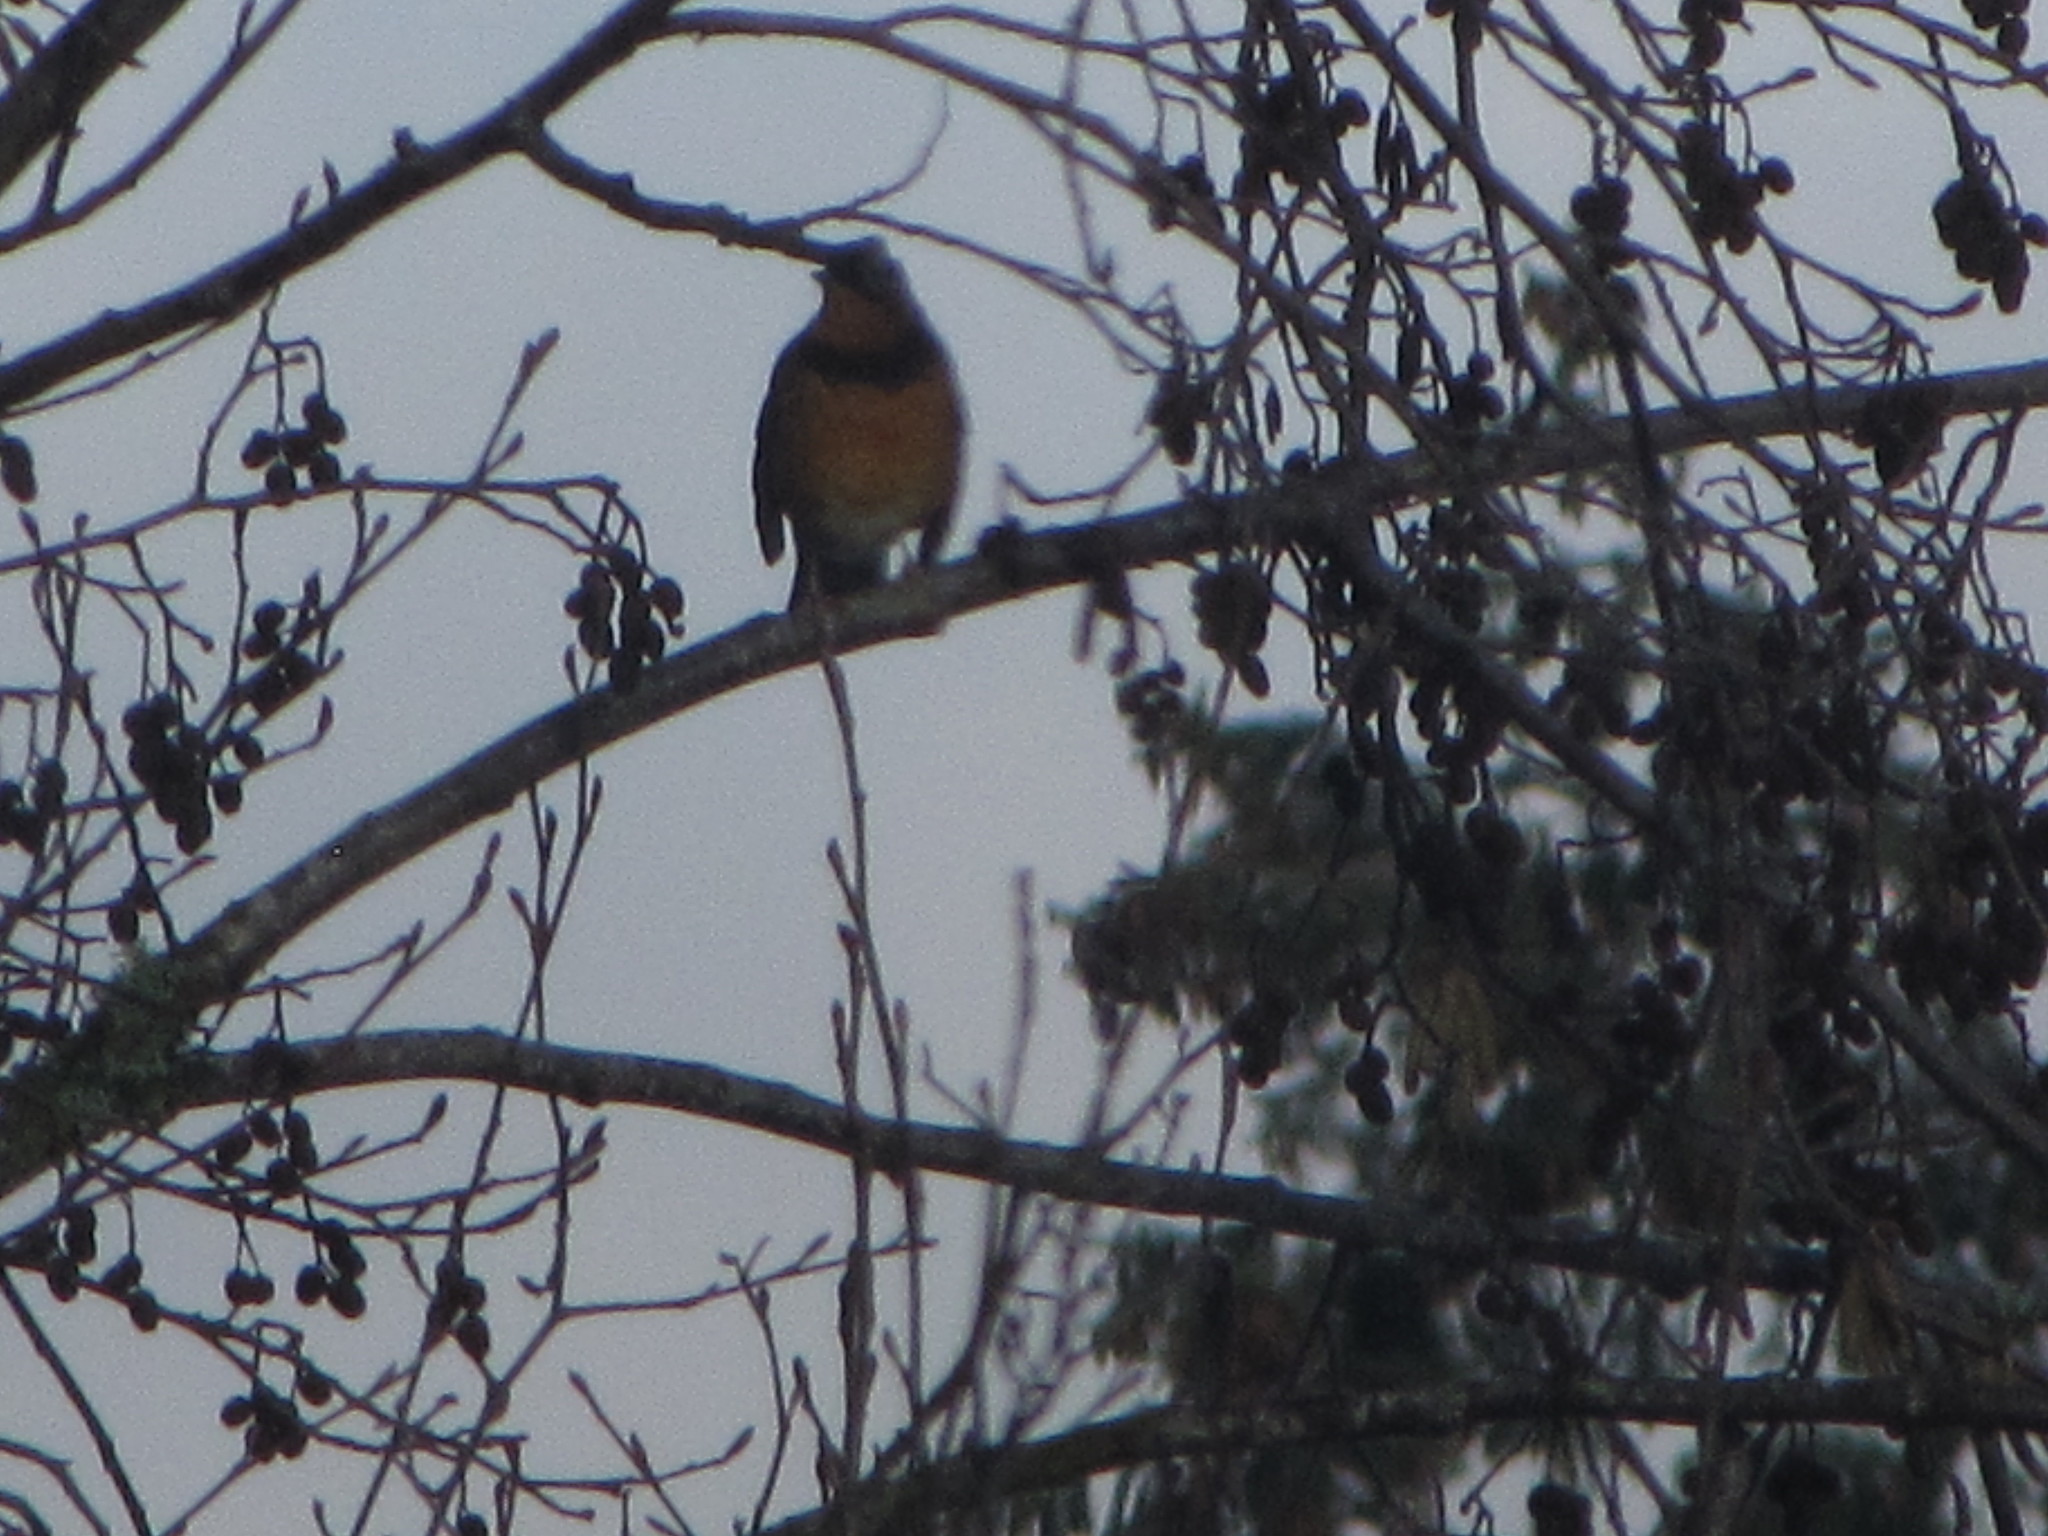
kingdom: Animalia
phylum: Chordata
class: Aves
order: Passeriformes
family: Turdidae
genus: Ixoreus
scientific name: Ixoreus naevius
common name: Varied thrush
